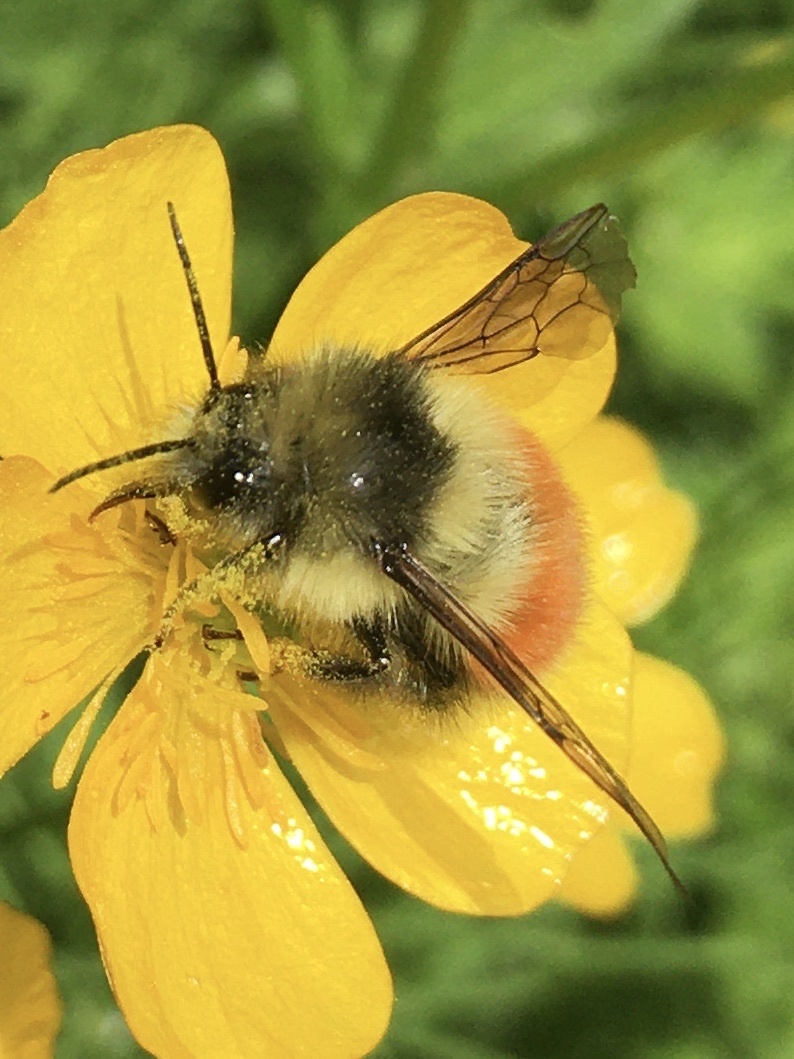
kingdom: Animalia
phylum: Arthropoda
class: Insecta
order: Hymenoptera
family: Apidae
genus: Bombus
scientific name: Bombus melanopygus
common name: Black tail bumble bee
